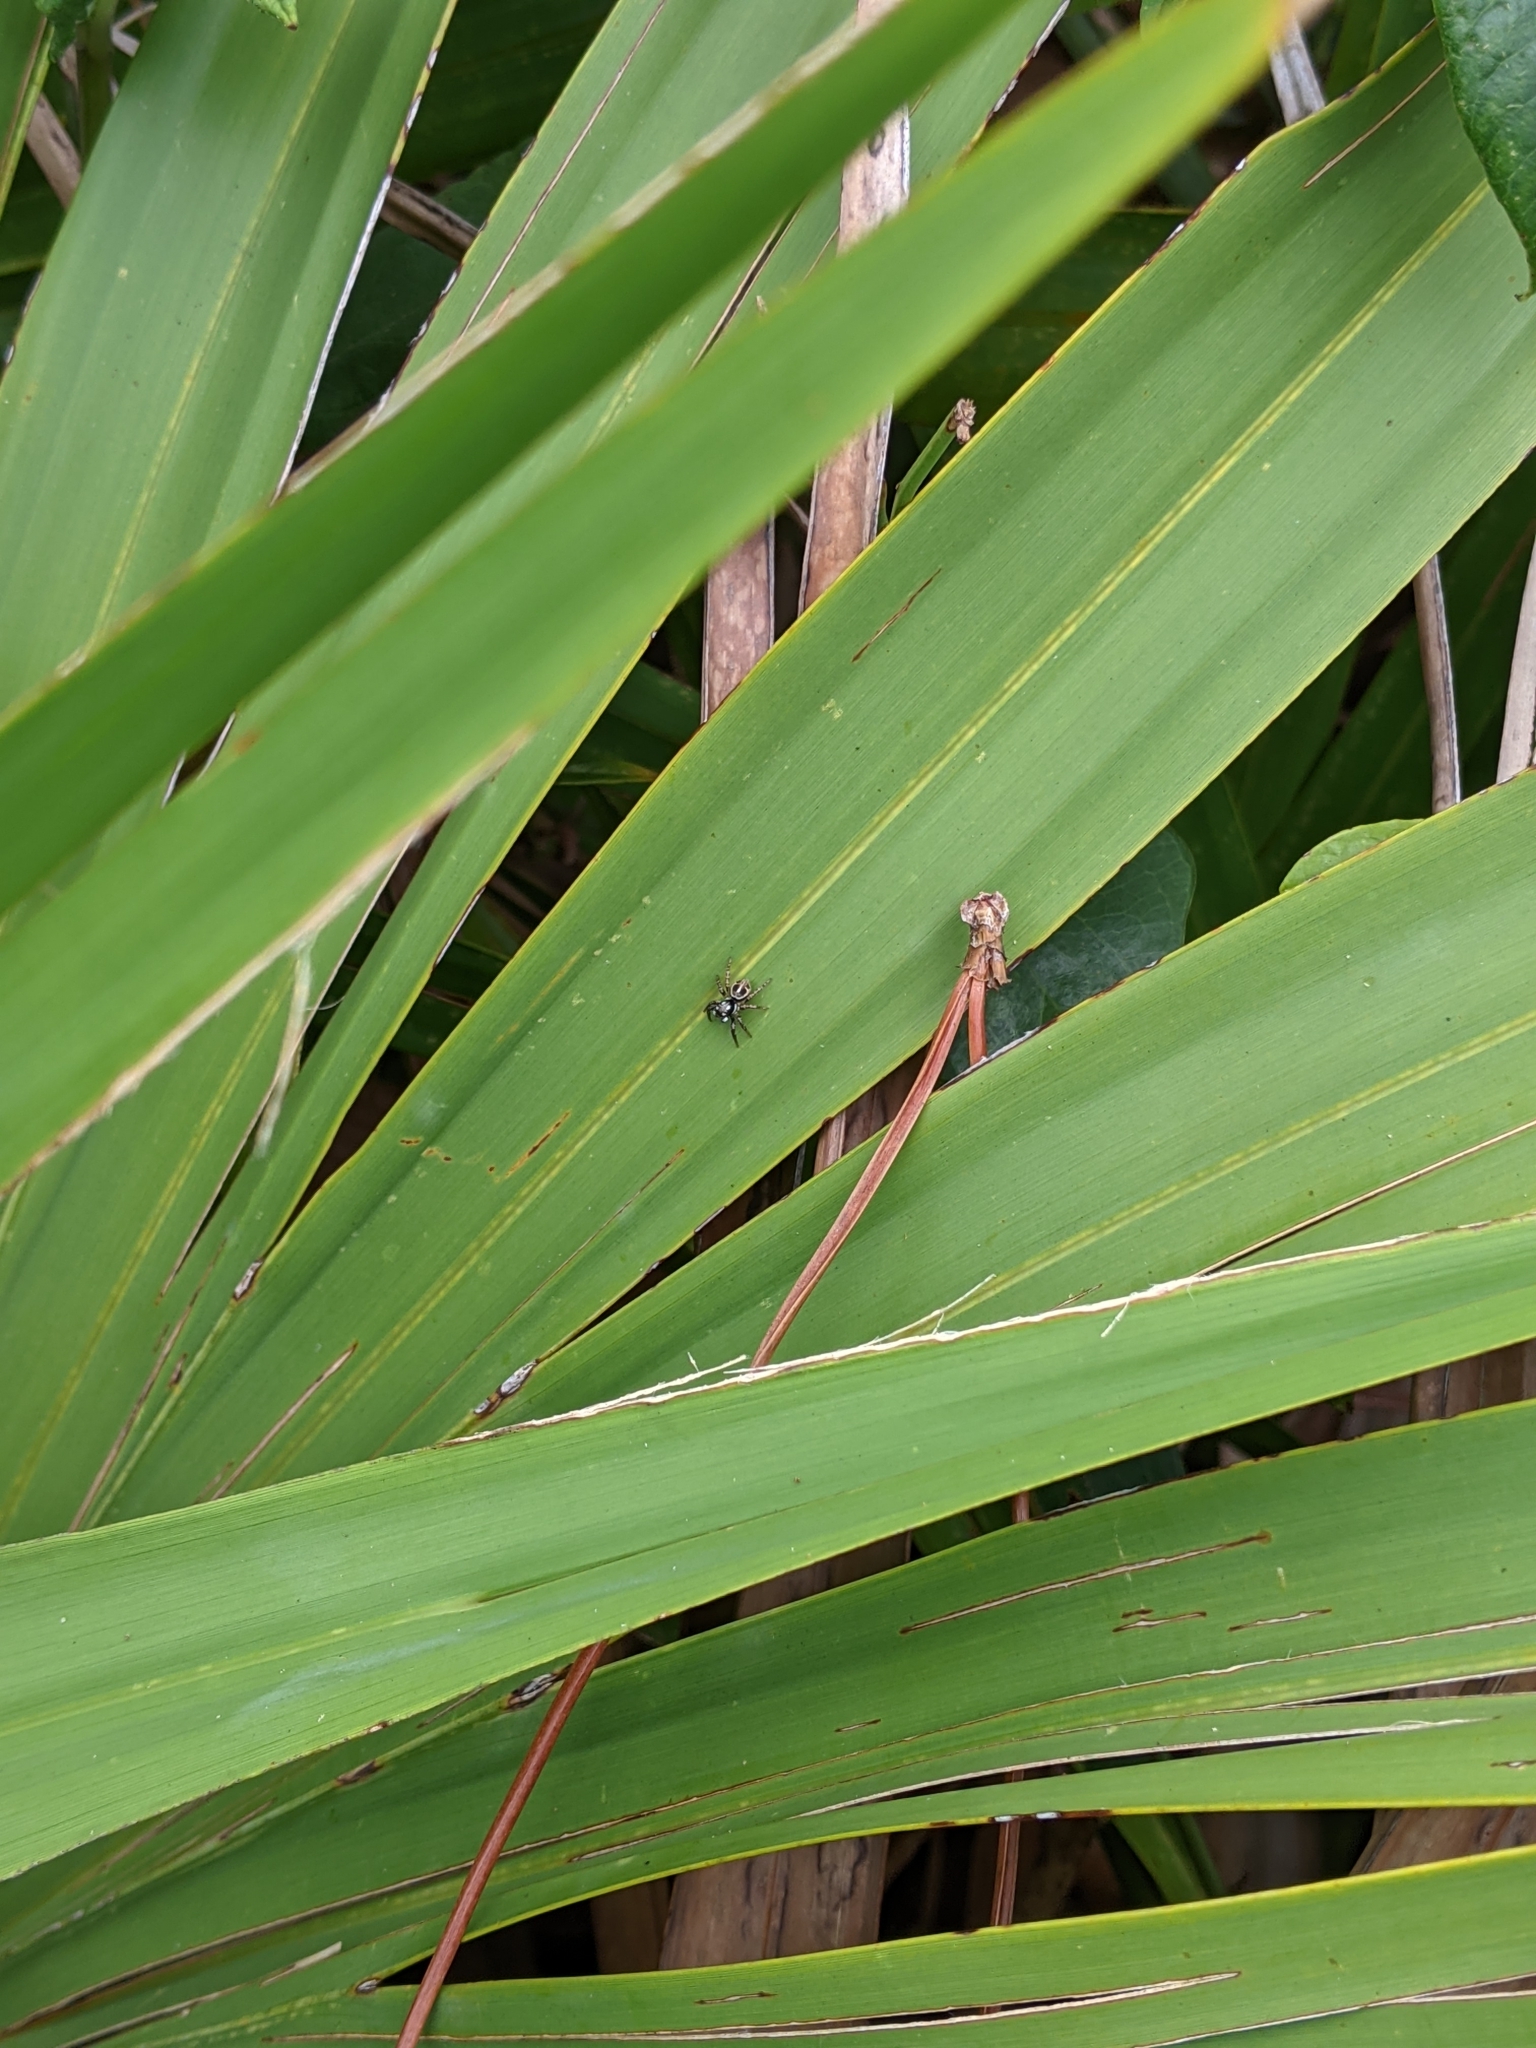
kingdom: Animalia
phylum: Arthropoda
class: Arachnida
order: Araneae
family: Salticidae
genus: Anasaitis
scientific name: Anasaitis canosa
